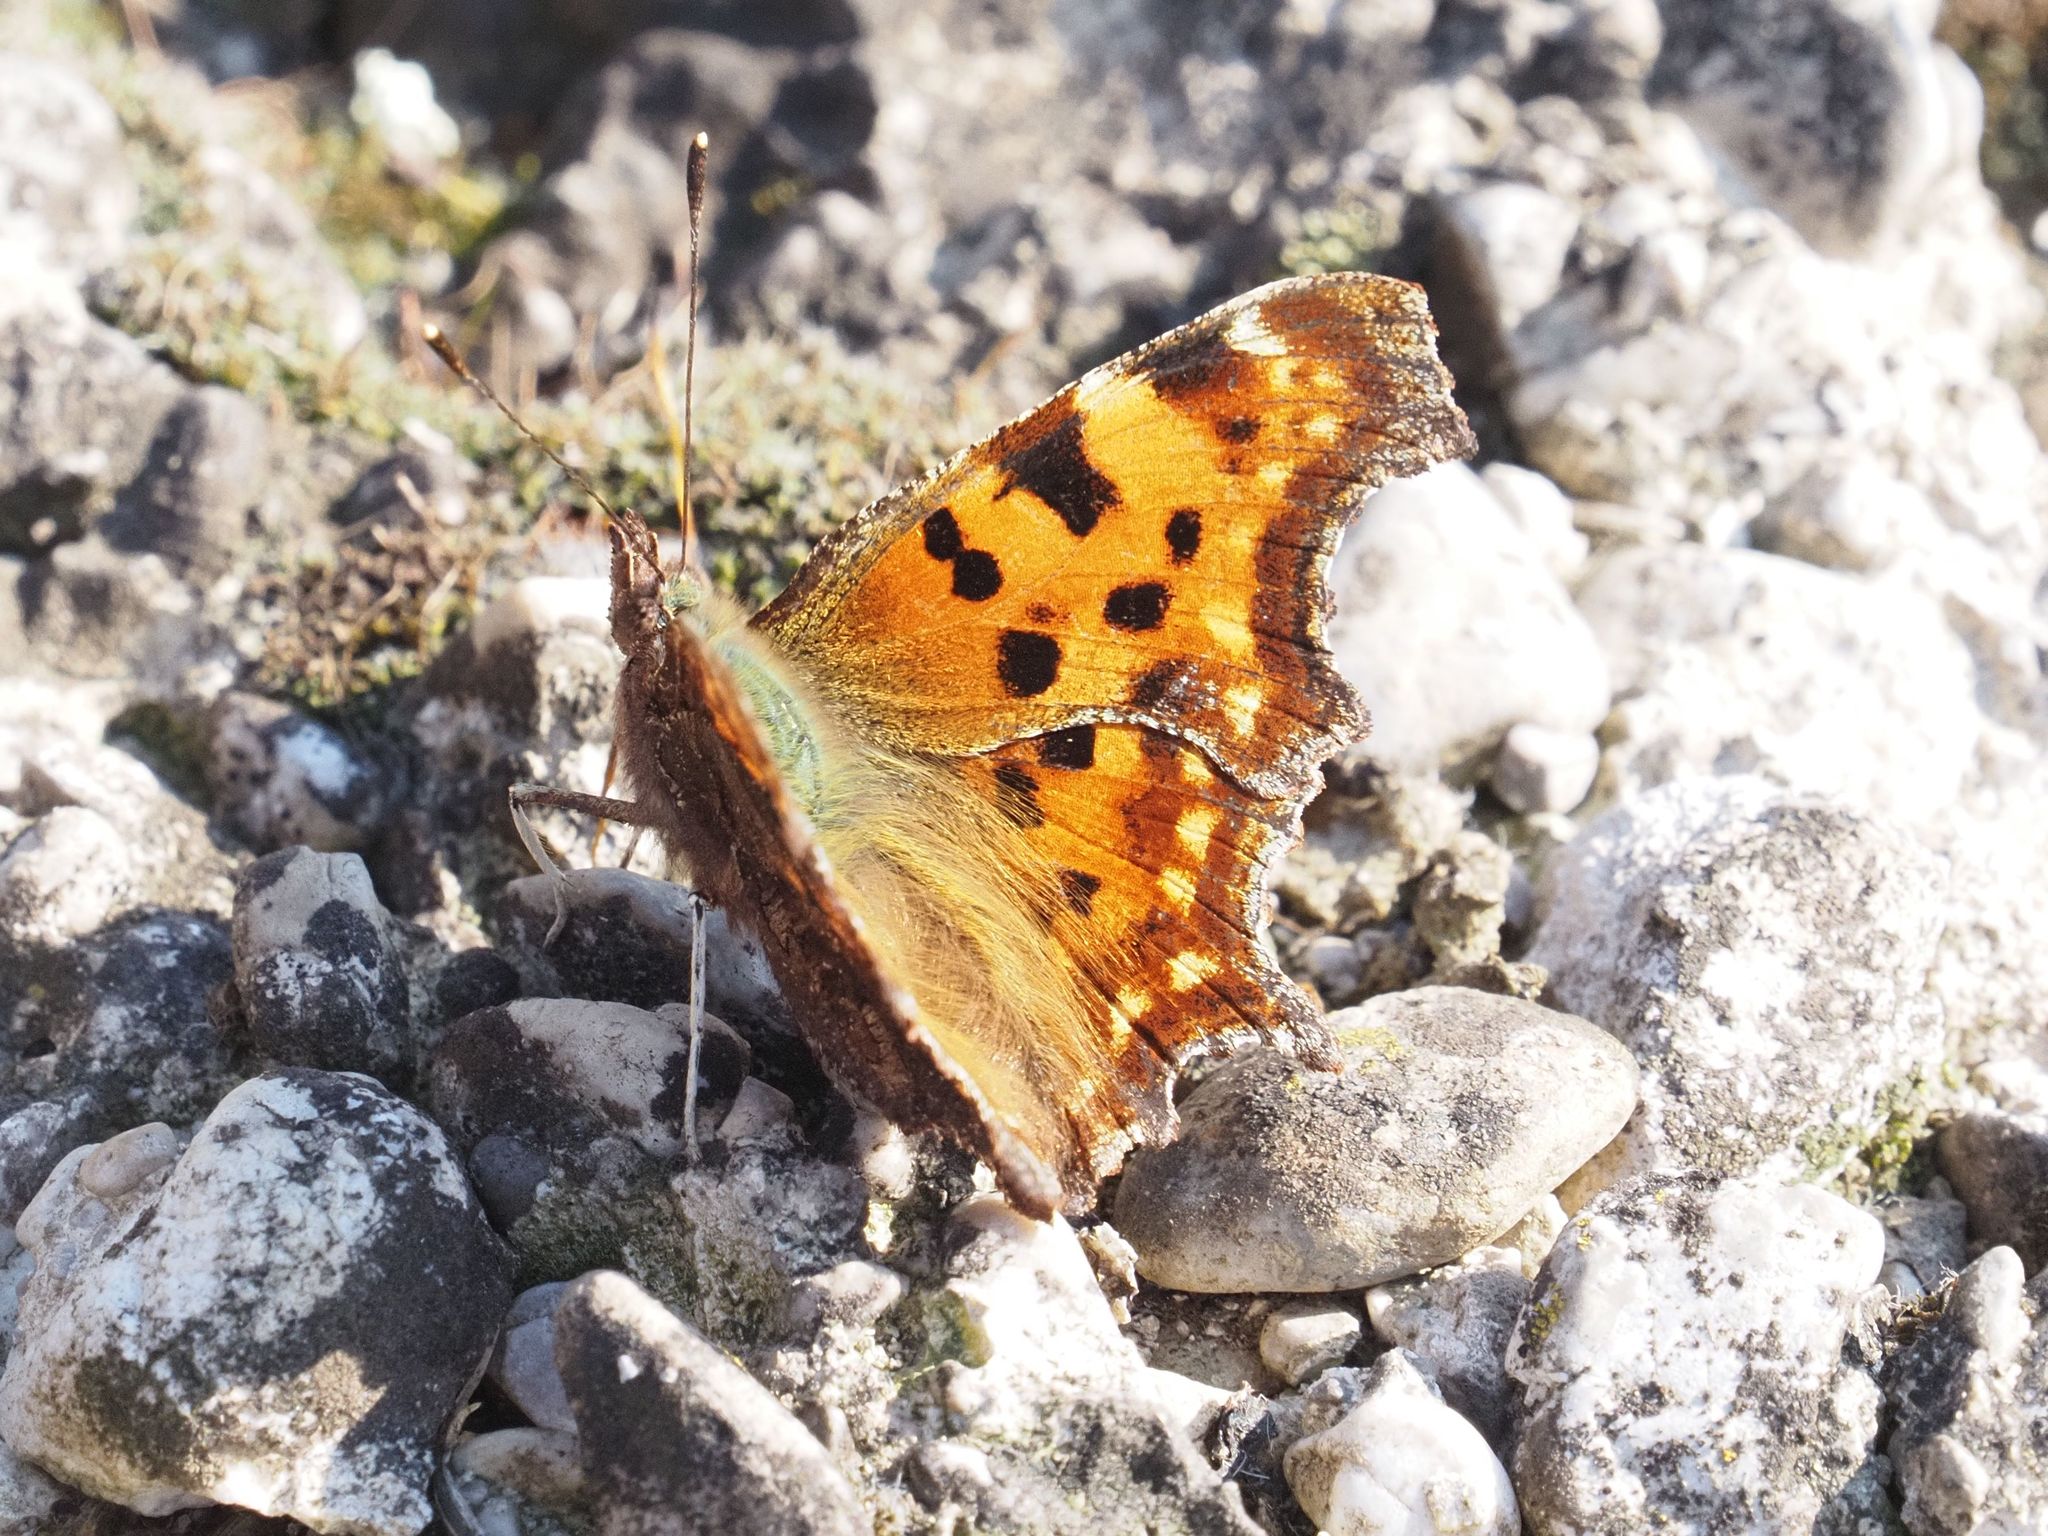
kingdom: Animalia
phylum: Arthropoda
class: Insecta
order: Lepidoptera
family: Nymphalidae
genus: Polygonia
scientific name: Polygonia c-album
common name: Comma
